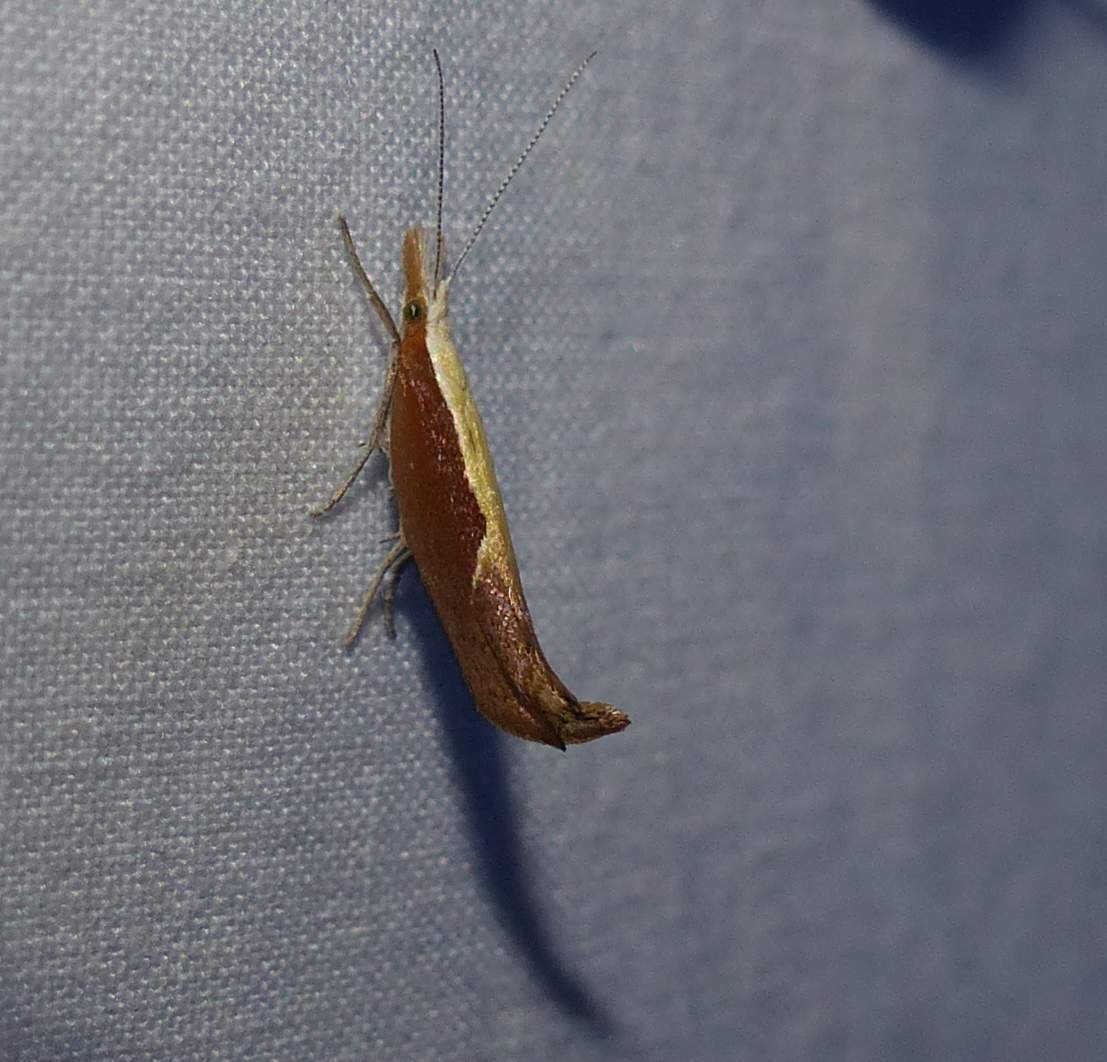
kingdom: Animalia
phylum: Arthropoda
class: Insecta
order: Lepidoptera
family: Ypsolophidae
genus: Ypsolopha
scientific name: Ypsolopha dentella
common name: Honeysuckle moth
